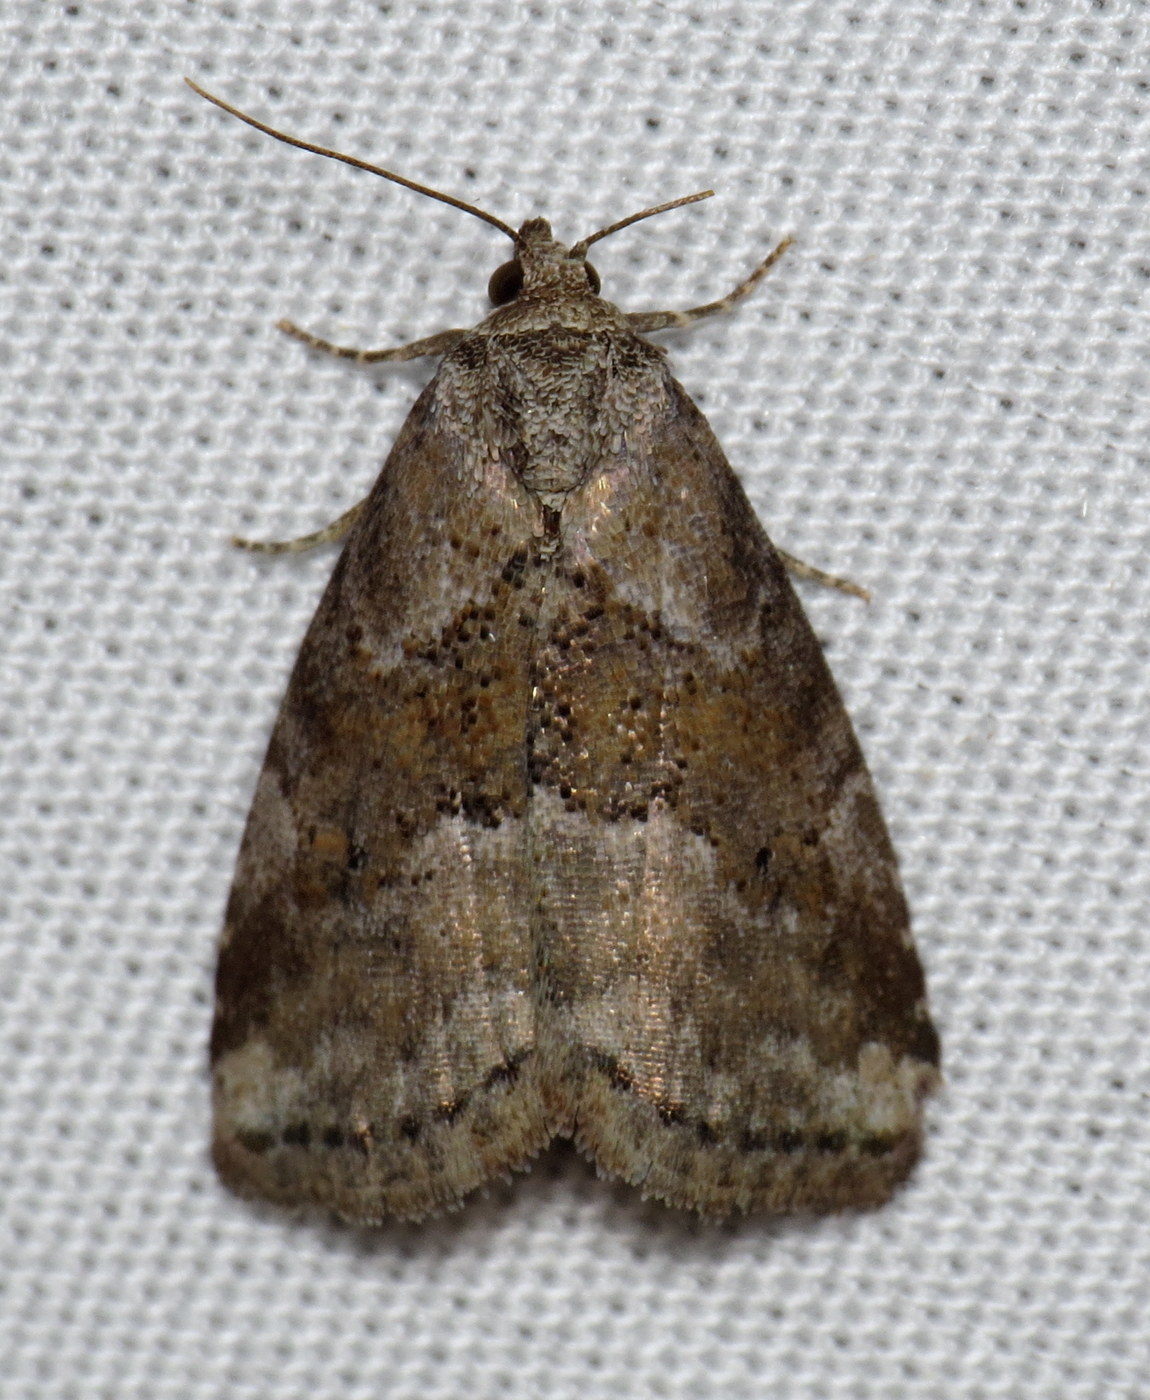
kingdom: Animalia
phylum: Arthropoda
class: Insecta
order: Lepidoptera
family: Erebidae
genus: Hyperstrotia
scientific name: Hyperstrotia nana
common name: White-lined graylet
